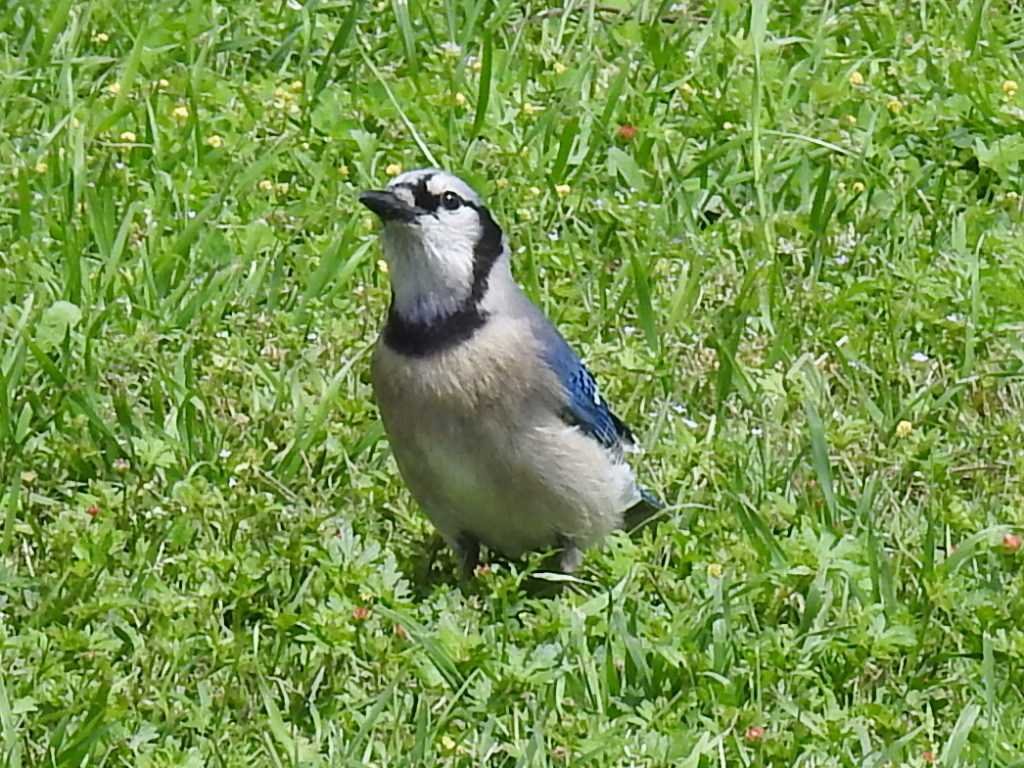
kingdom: Animalia
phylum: Chordata
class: Aves
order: Passeriformes
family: Corvidae
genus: Cyanocitta
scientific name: Cyanocitta cristata
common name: Blue jay
